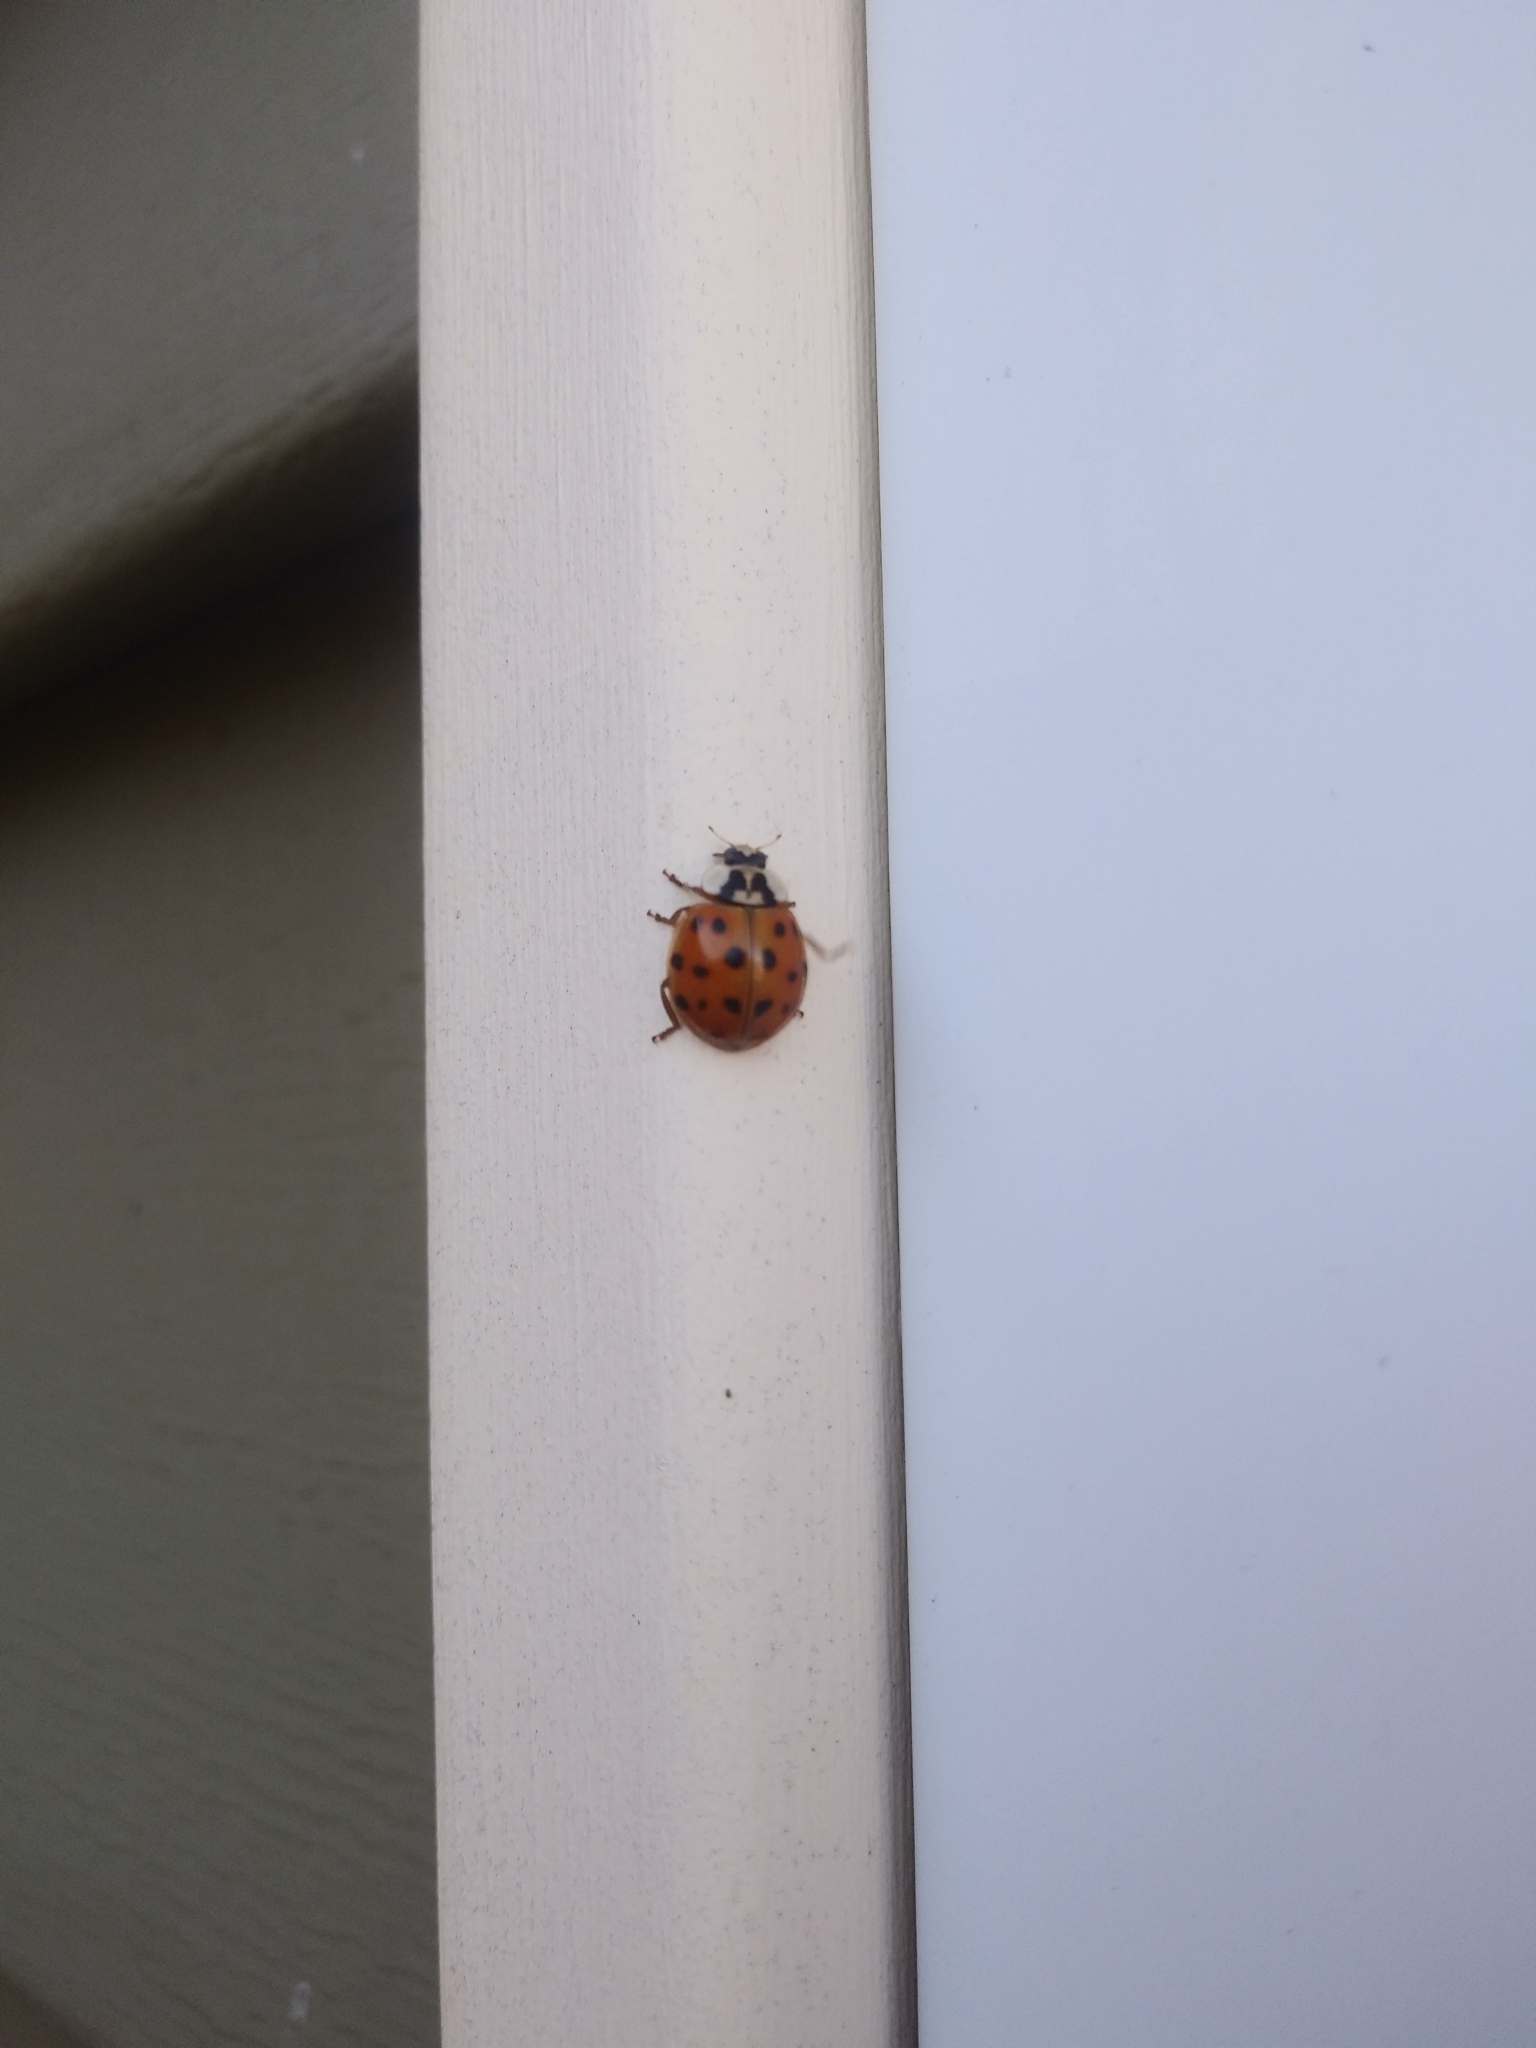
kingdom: Animalia
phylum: Arthropoda
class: Insecta
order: Coleoptera
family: Coccinellidae
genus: Harmonia
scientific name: Harmonia axyridis
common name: Harlequin ladybird
